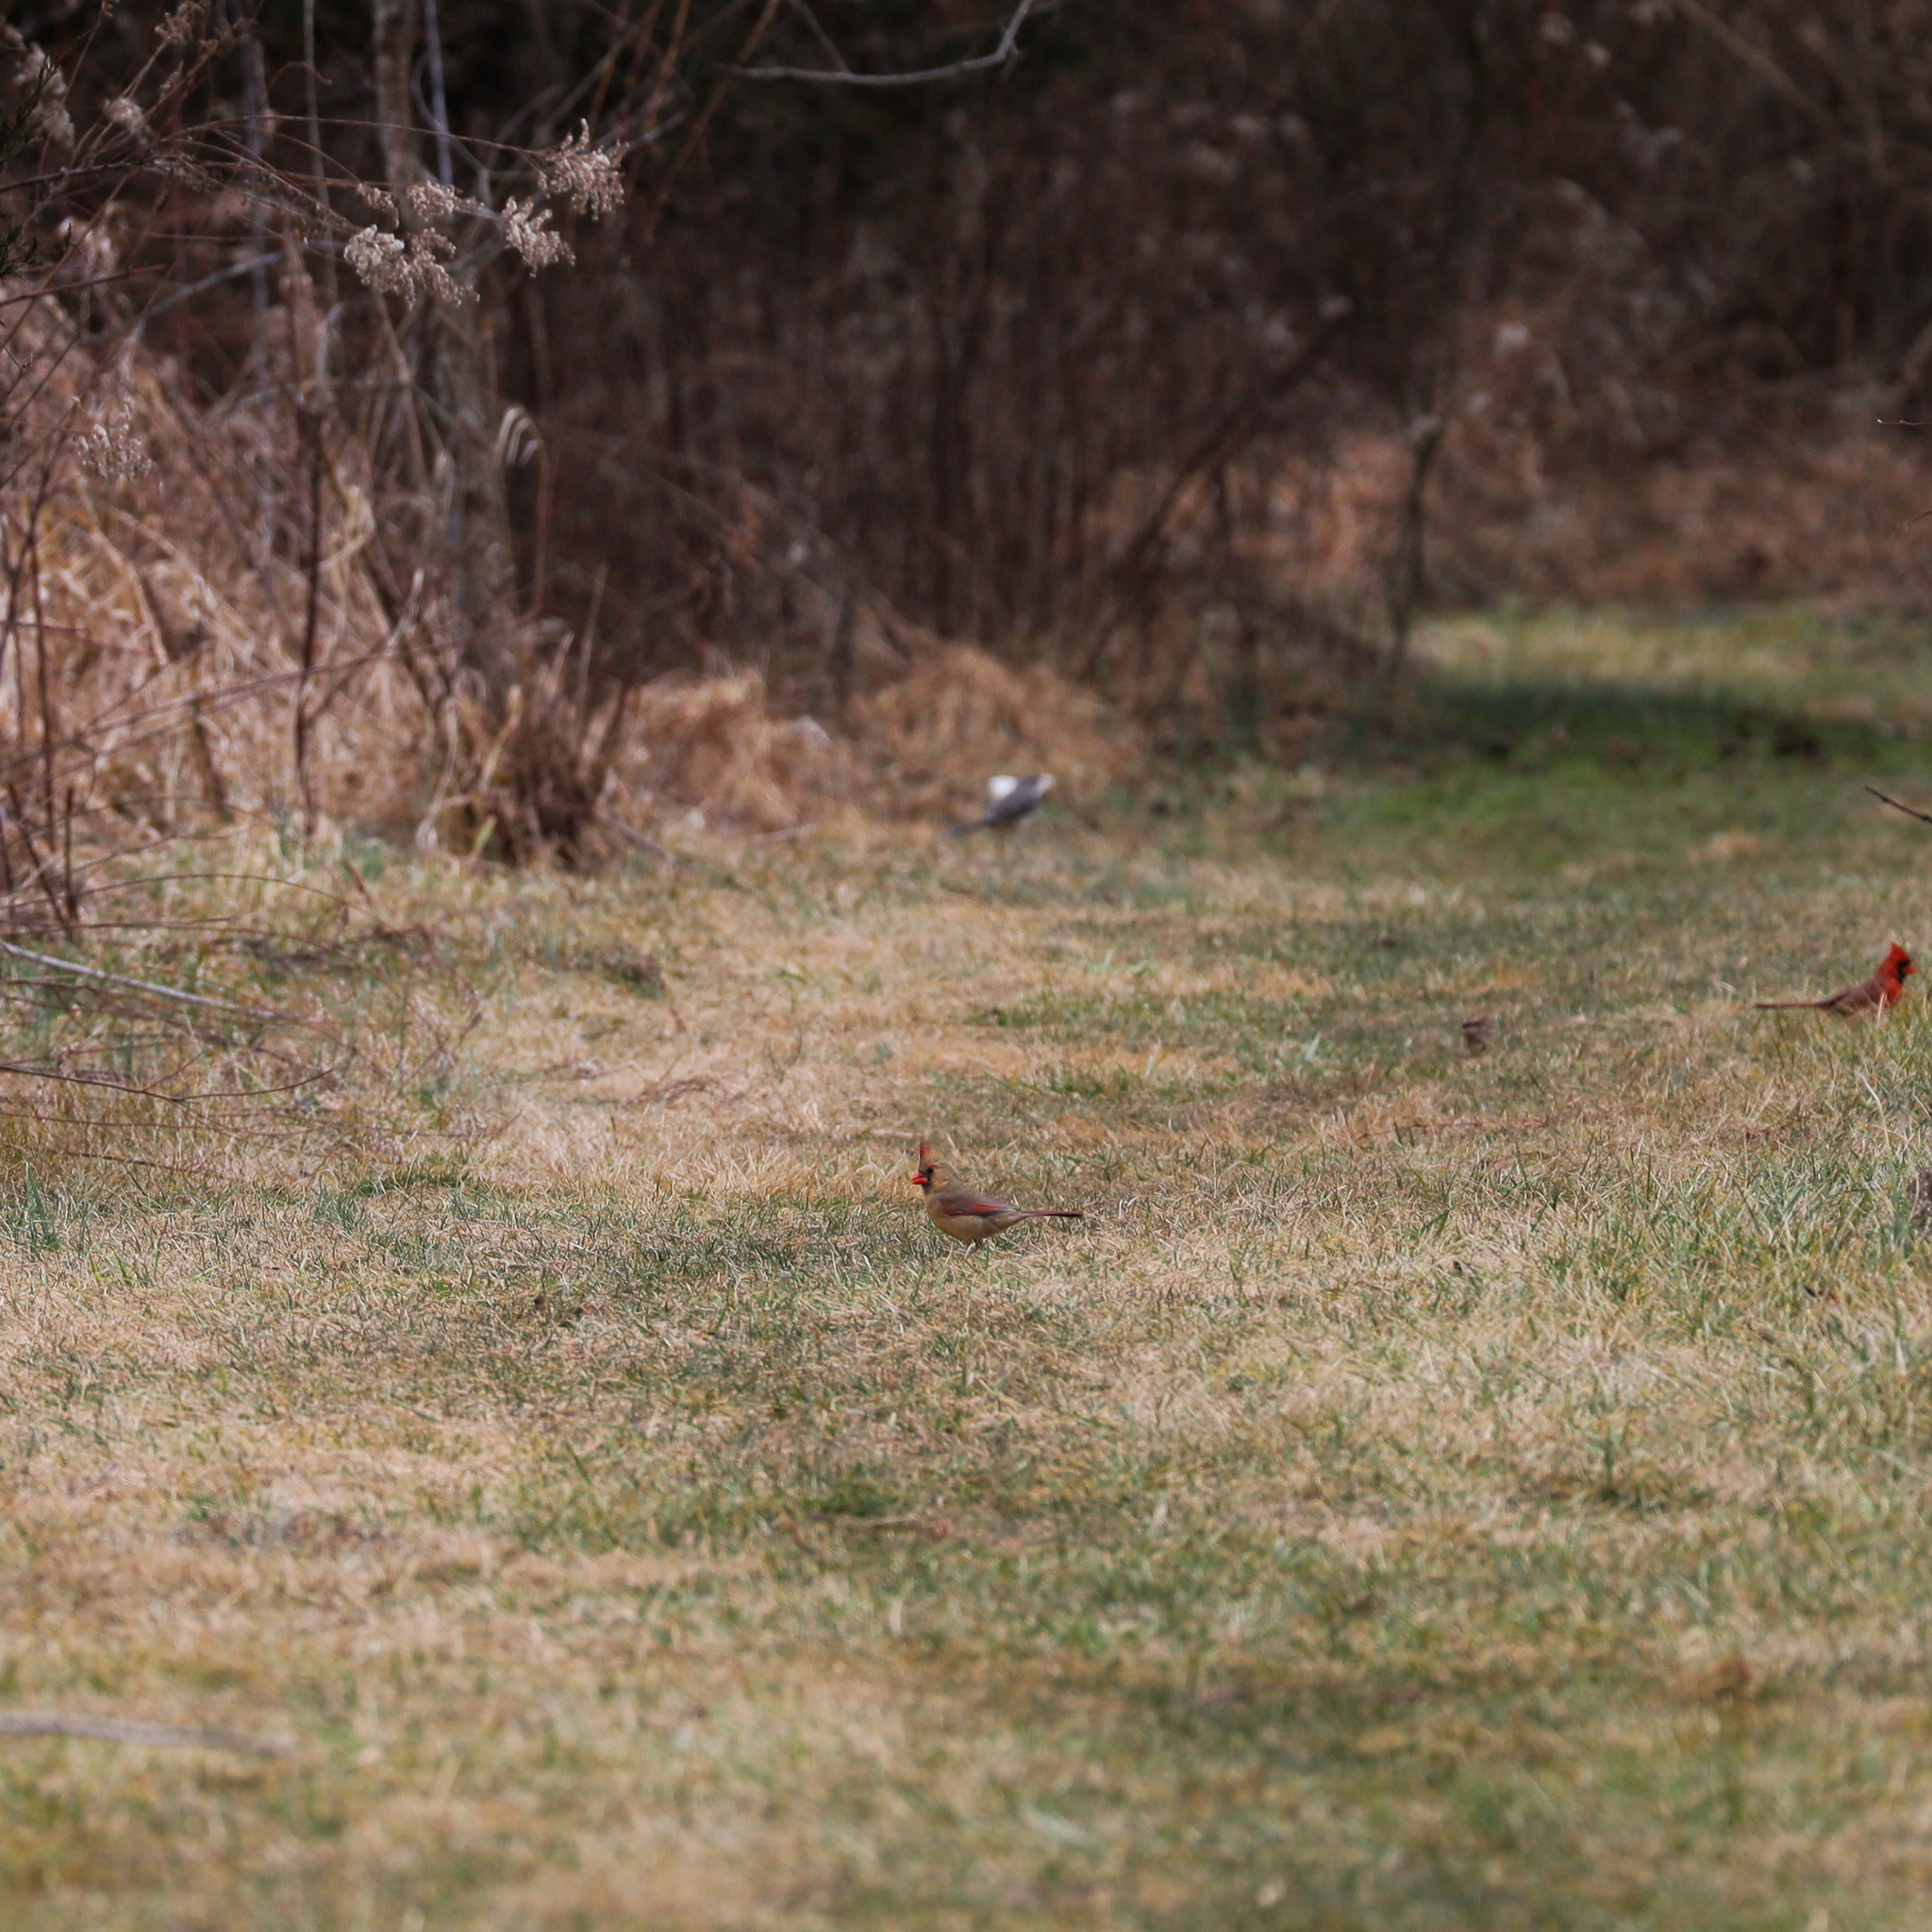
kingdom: Animalia
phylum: Chordata
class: Aves
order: Passeriformes
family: Cardinalidae
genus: Cardinalis
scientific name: Cardinalis cardinalis
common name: Northern cardinal
